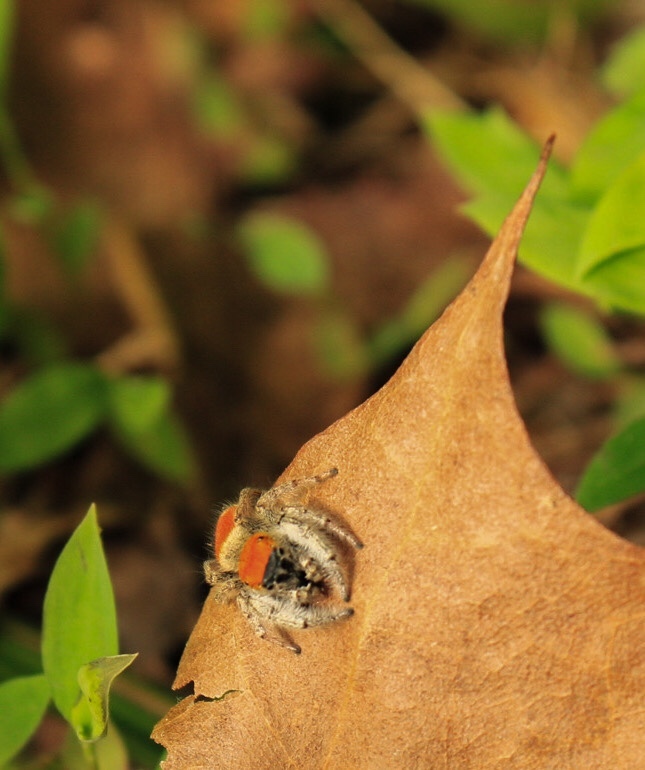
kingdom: Animalia
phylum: Arthropoda
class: Arachnida
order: Araneae
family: Salticidae
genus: Phidippus
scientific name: Phidippus whitmani
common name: Whitman's jumping spider
